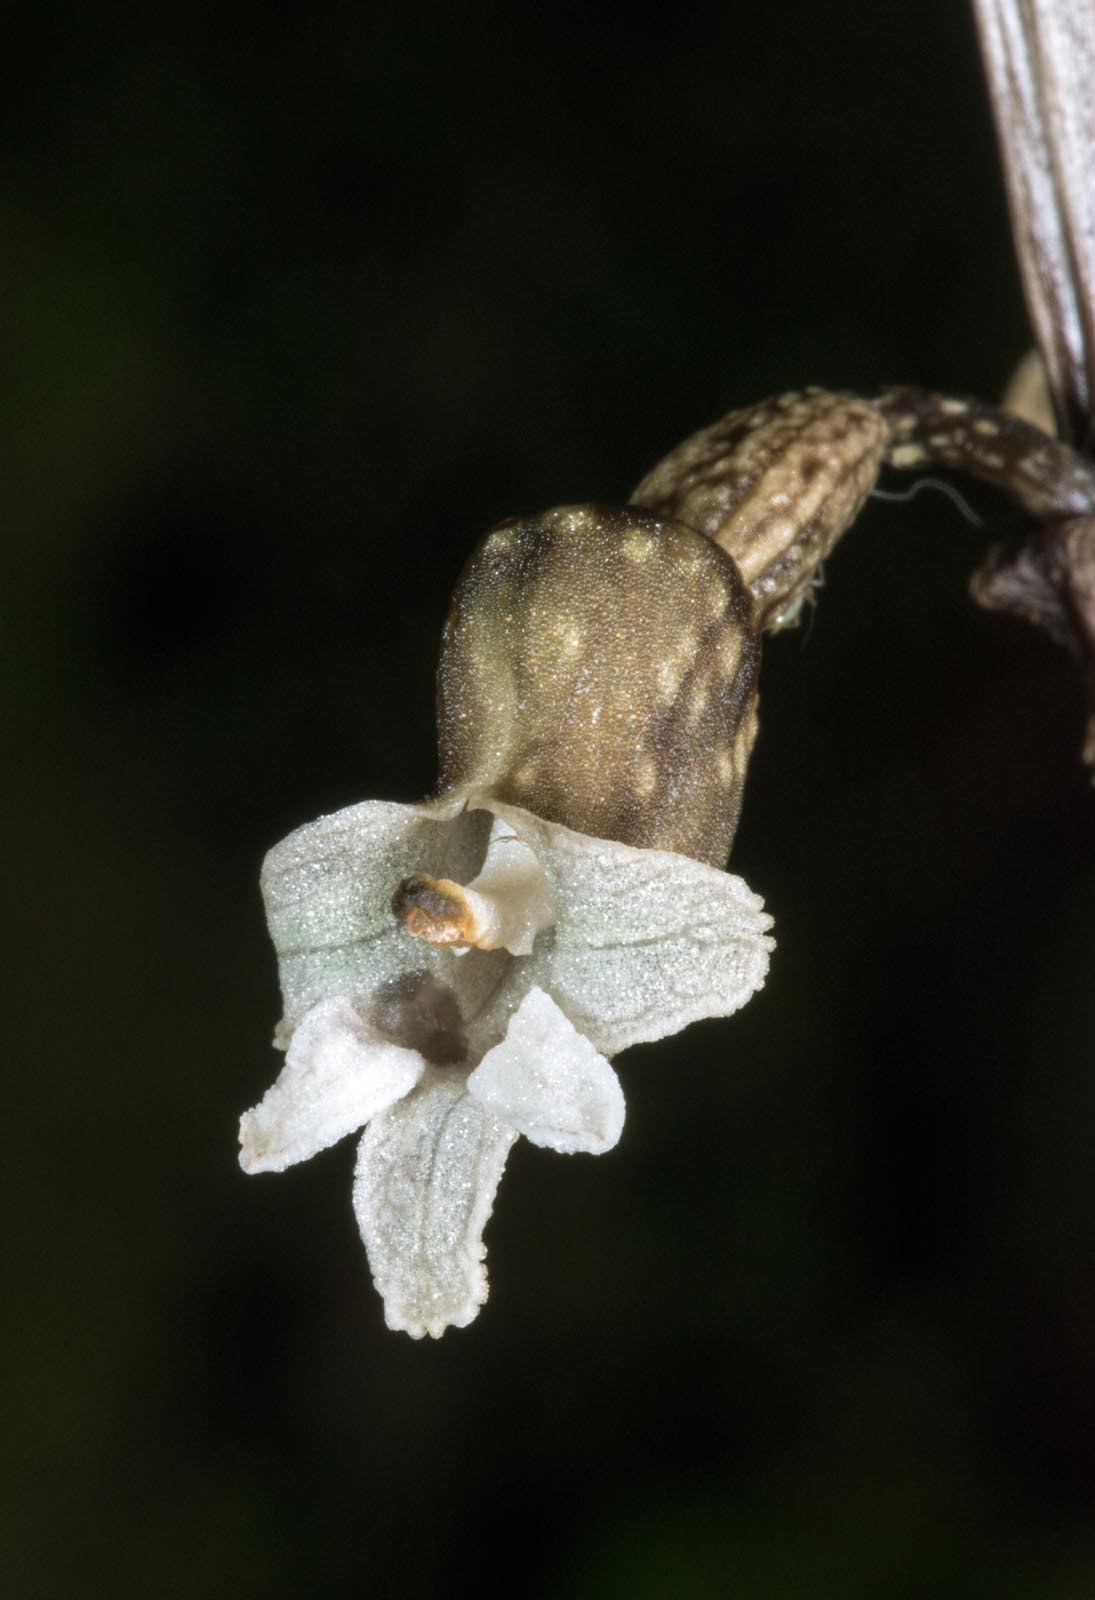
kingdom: Plantae
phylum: Tracheophyta
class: Liliopsida
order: Asparagales
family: Orchidaceae
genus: Gastrodia
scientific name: Gastrodia cunninghamii
